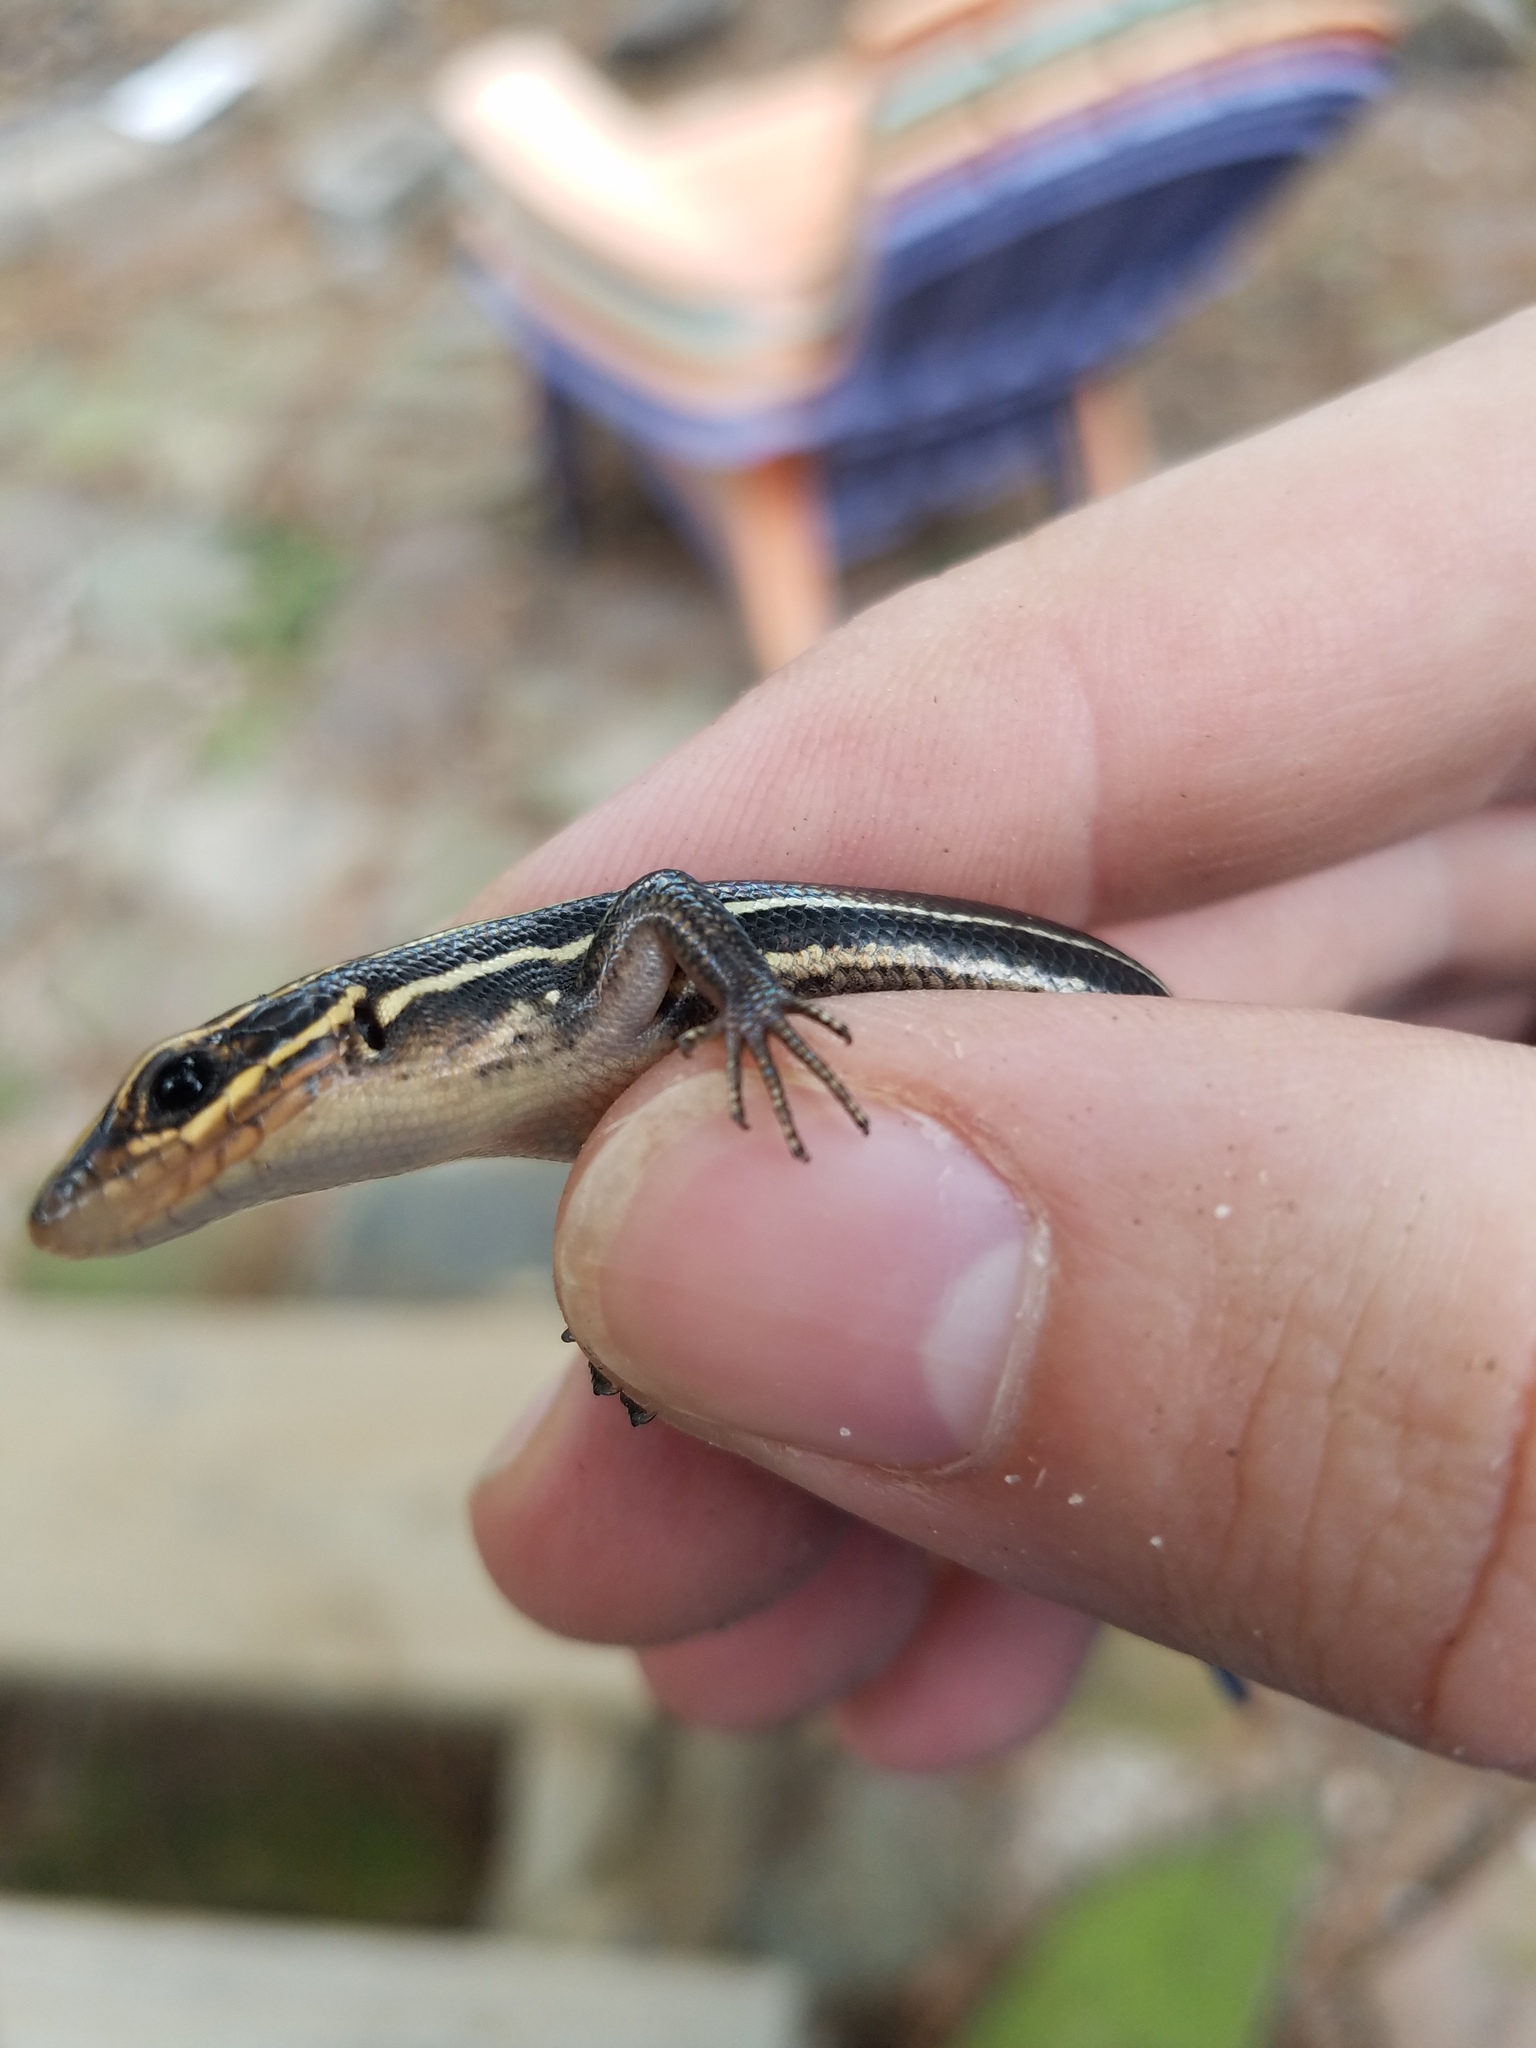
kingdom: Animalia
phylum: Chordata
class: Squamata
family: Scincidae
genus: Plestiodon
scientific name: Plestiodon laticeps
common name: Broadhead skink
